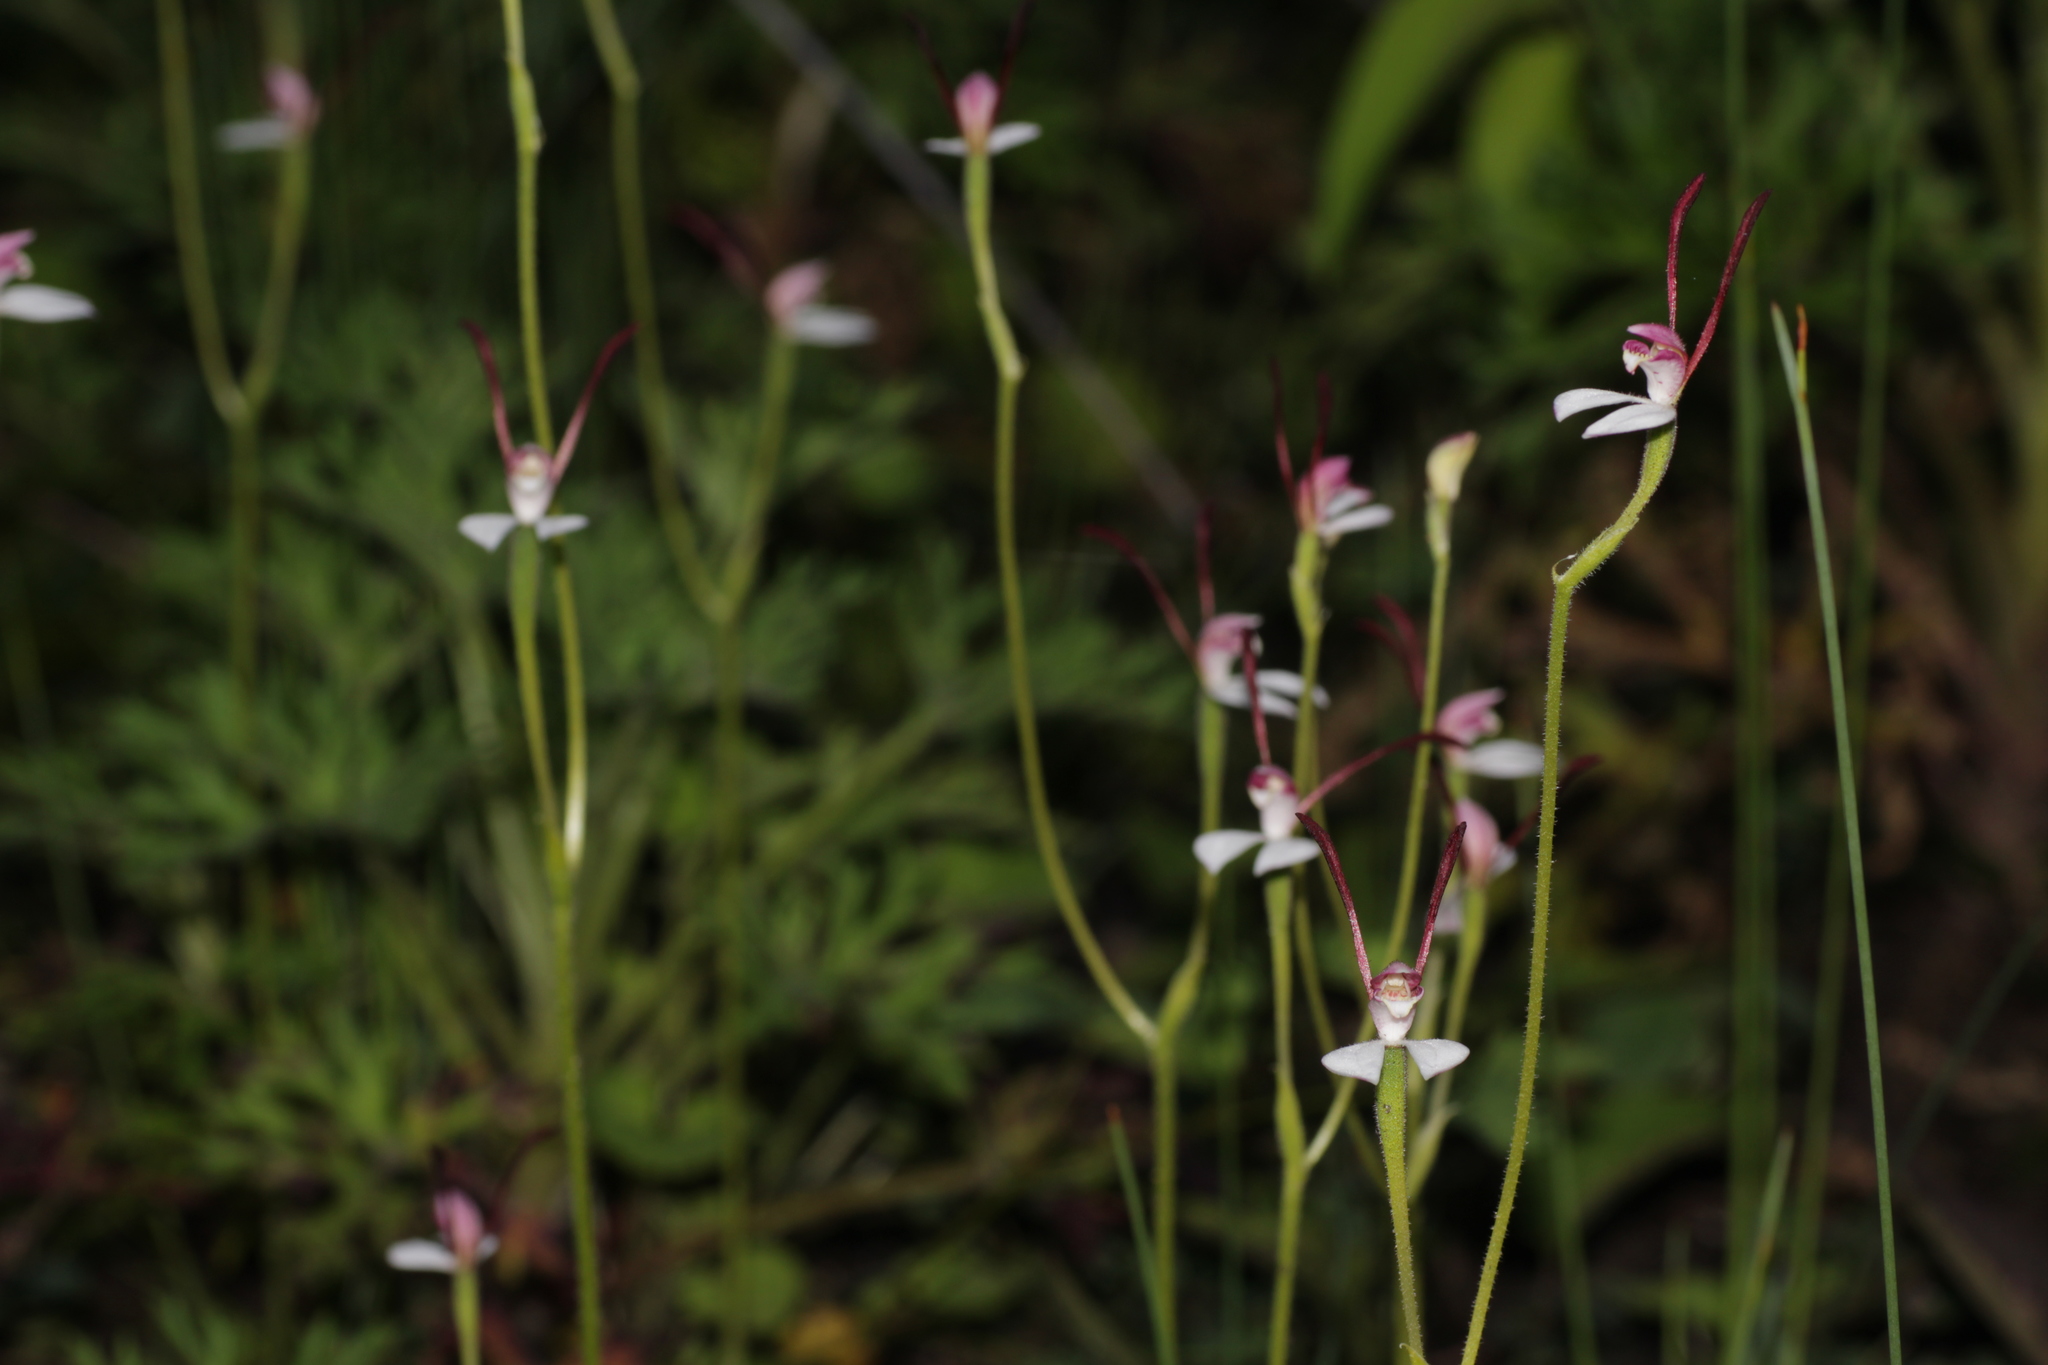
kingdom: Plantae
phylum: Tracheophyta
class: Liliopsida
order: Asparagales
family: Orchidaceae
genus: Leptoceras
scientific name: Leptoceras menziesii
